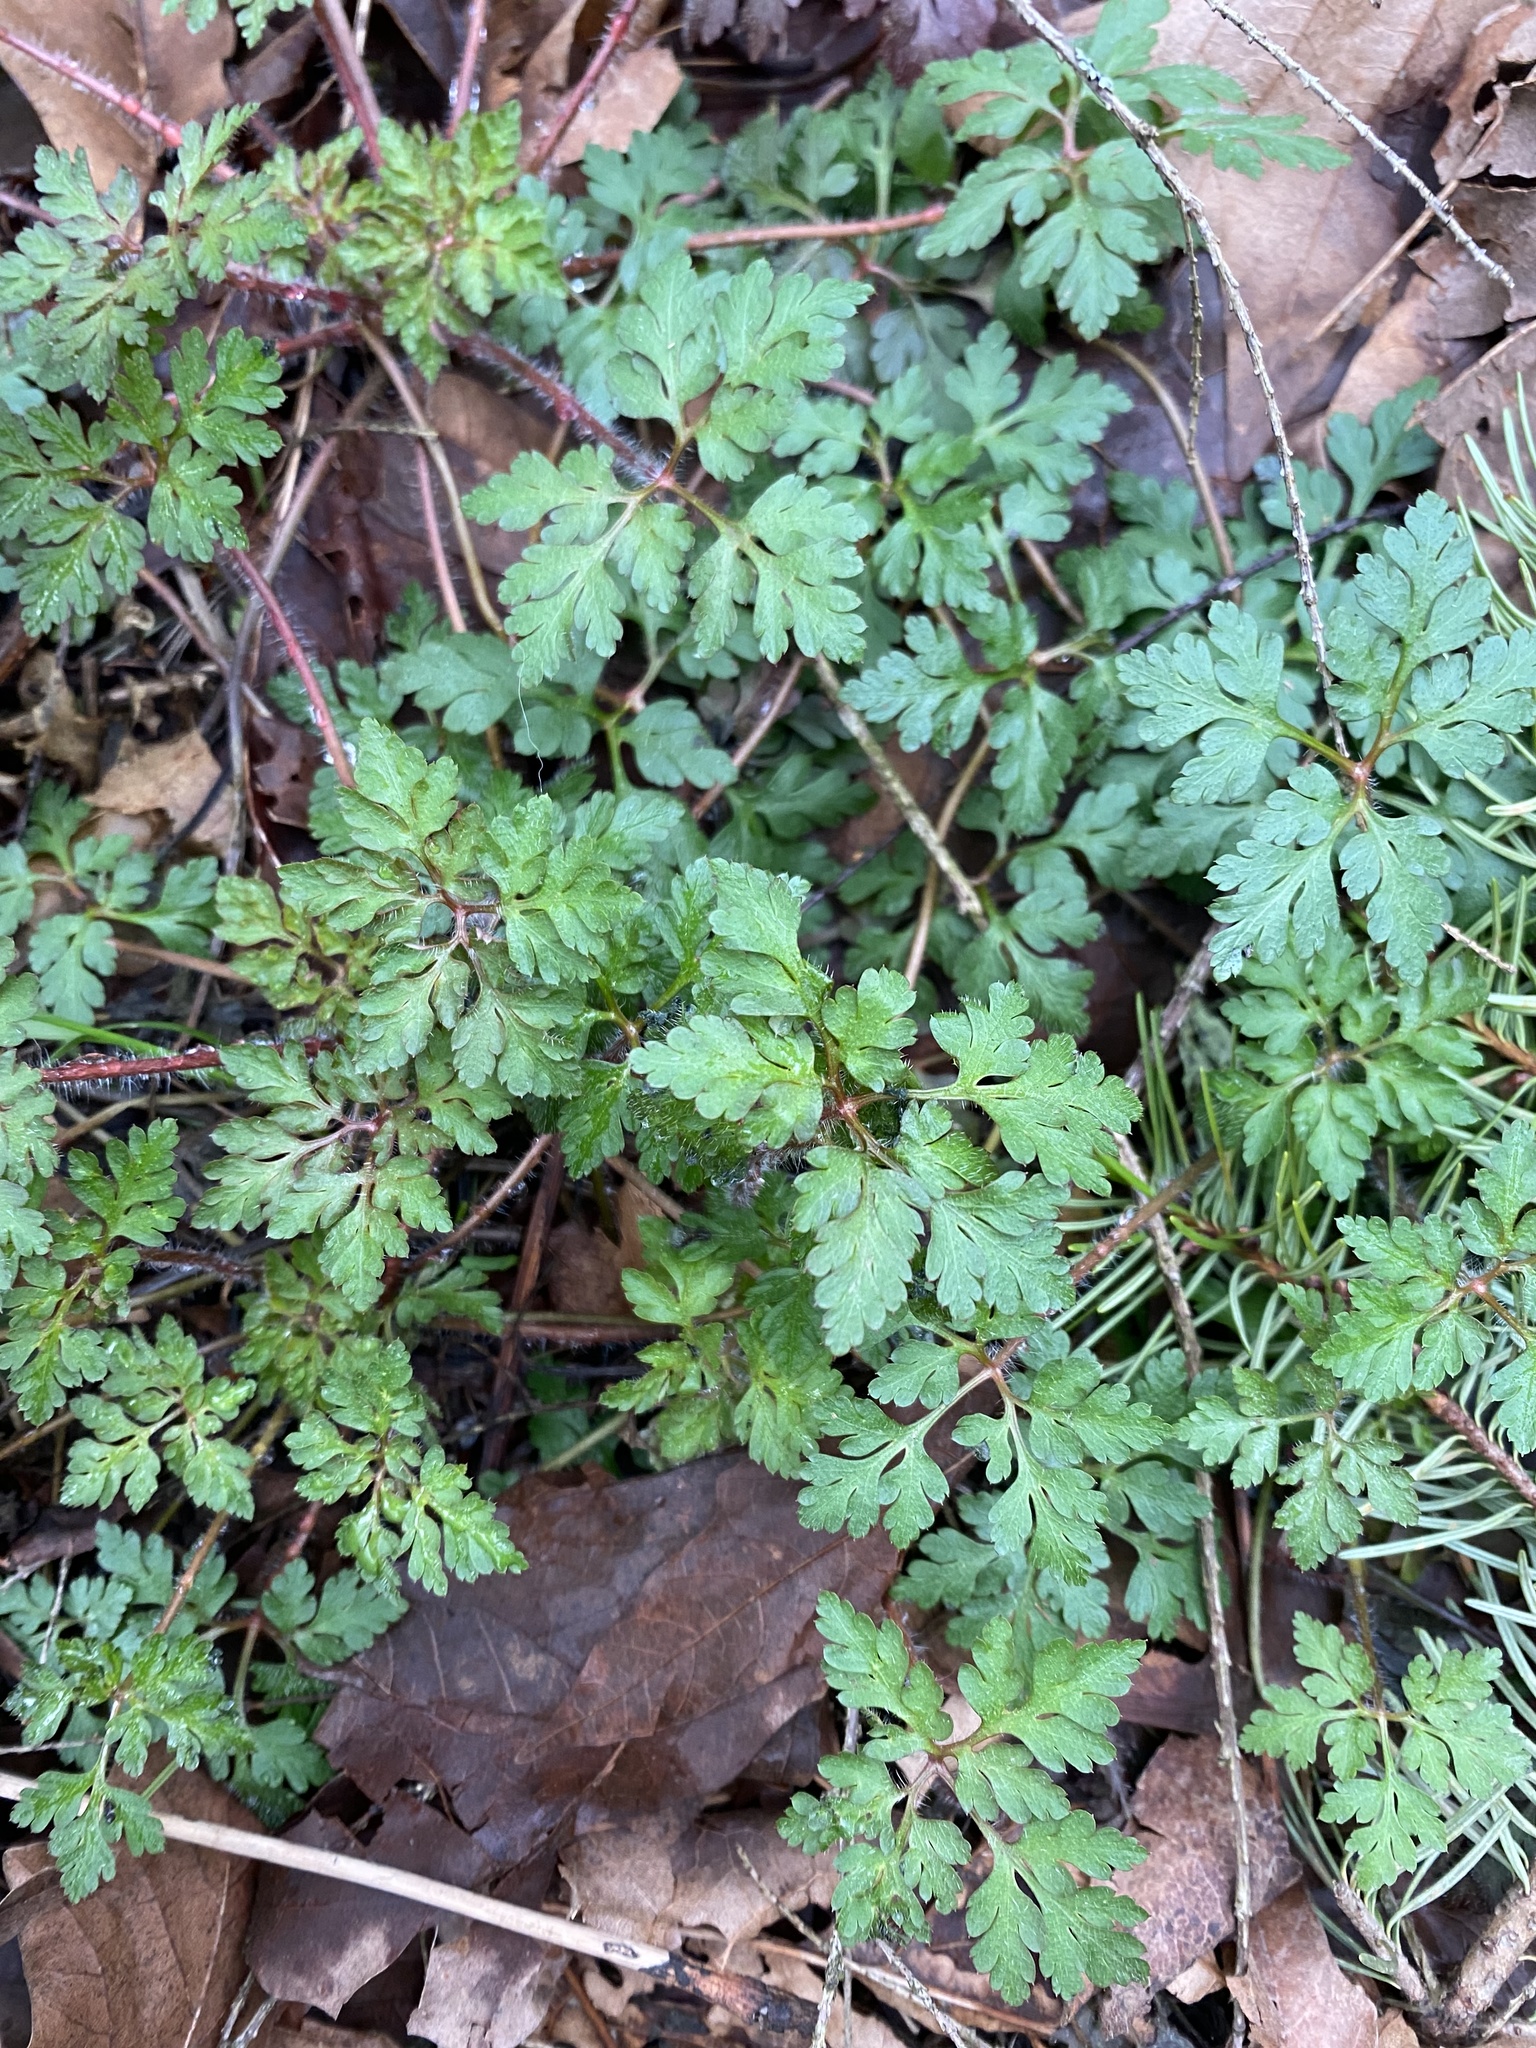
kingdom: Plantae
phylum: Tracheophyta
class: Magnoliopsida
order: Geraniales
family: Geraniaceae
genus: Geranium
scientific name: Geranium robertianum
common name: Herb-robert
